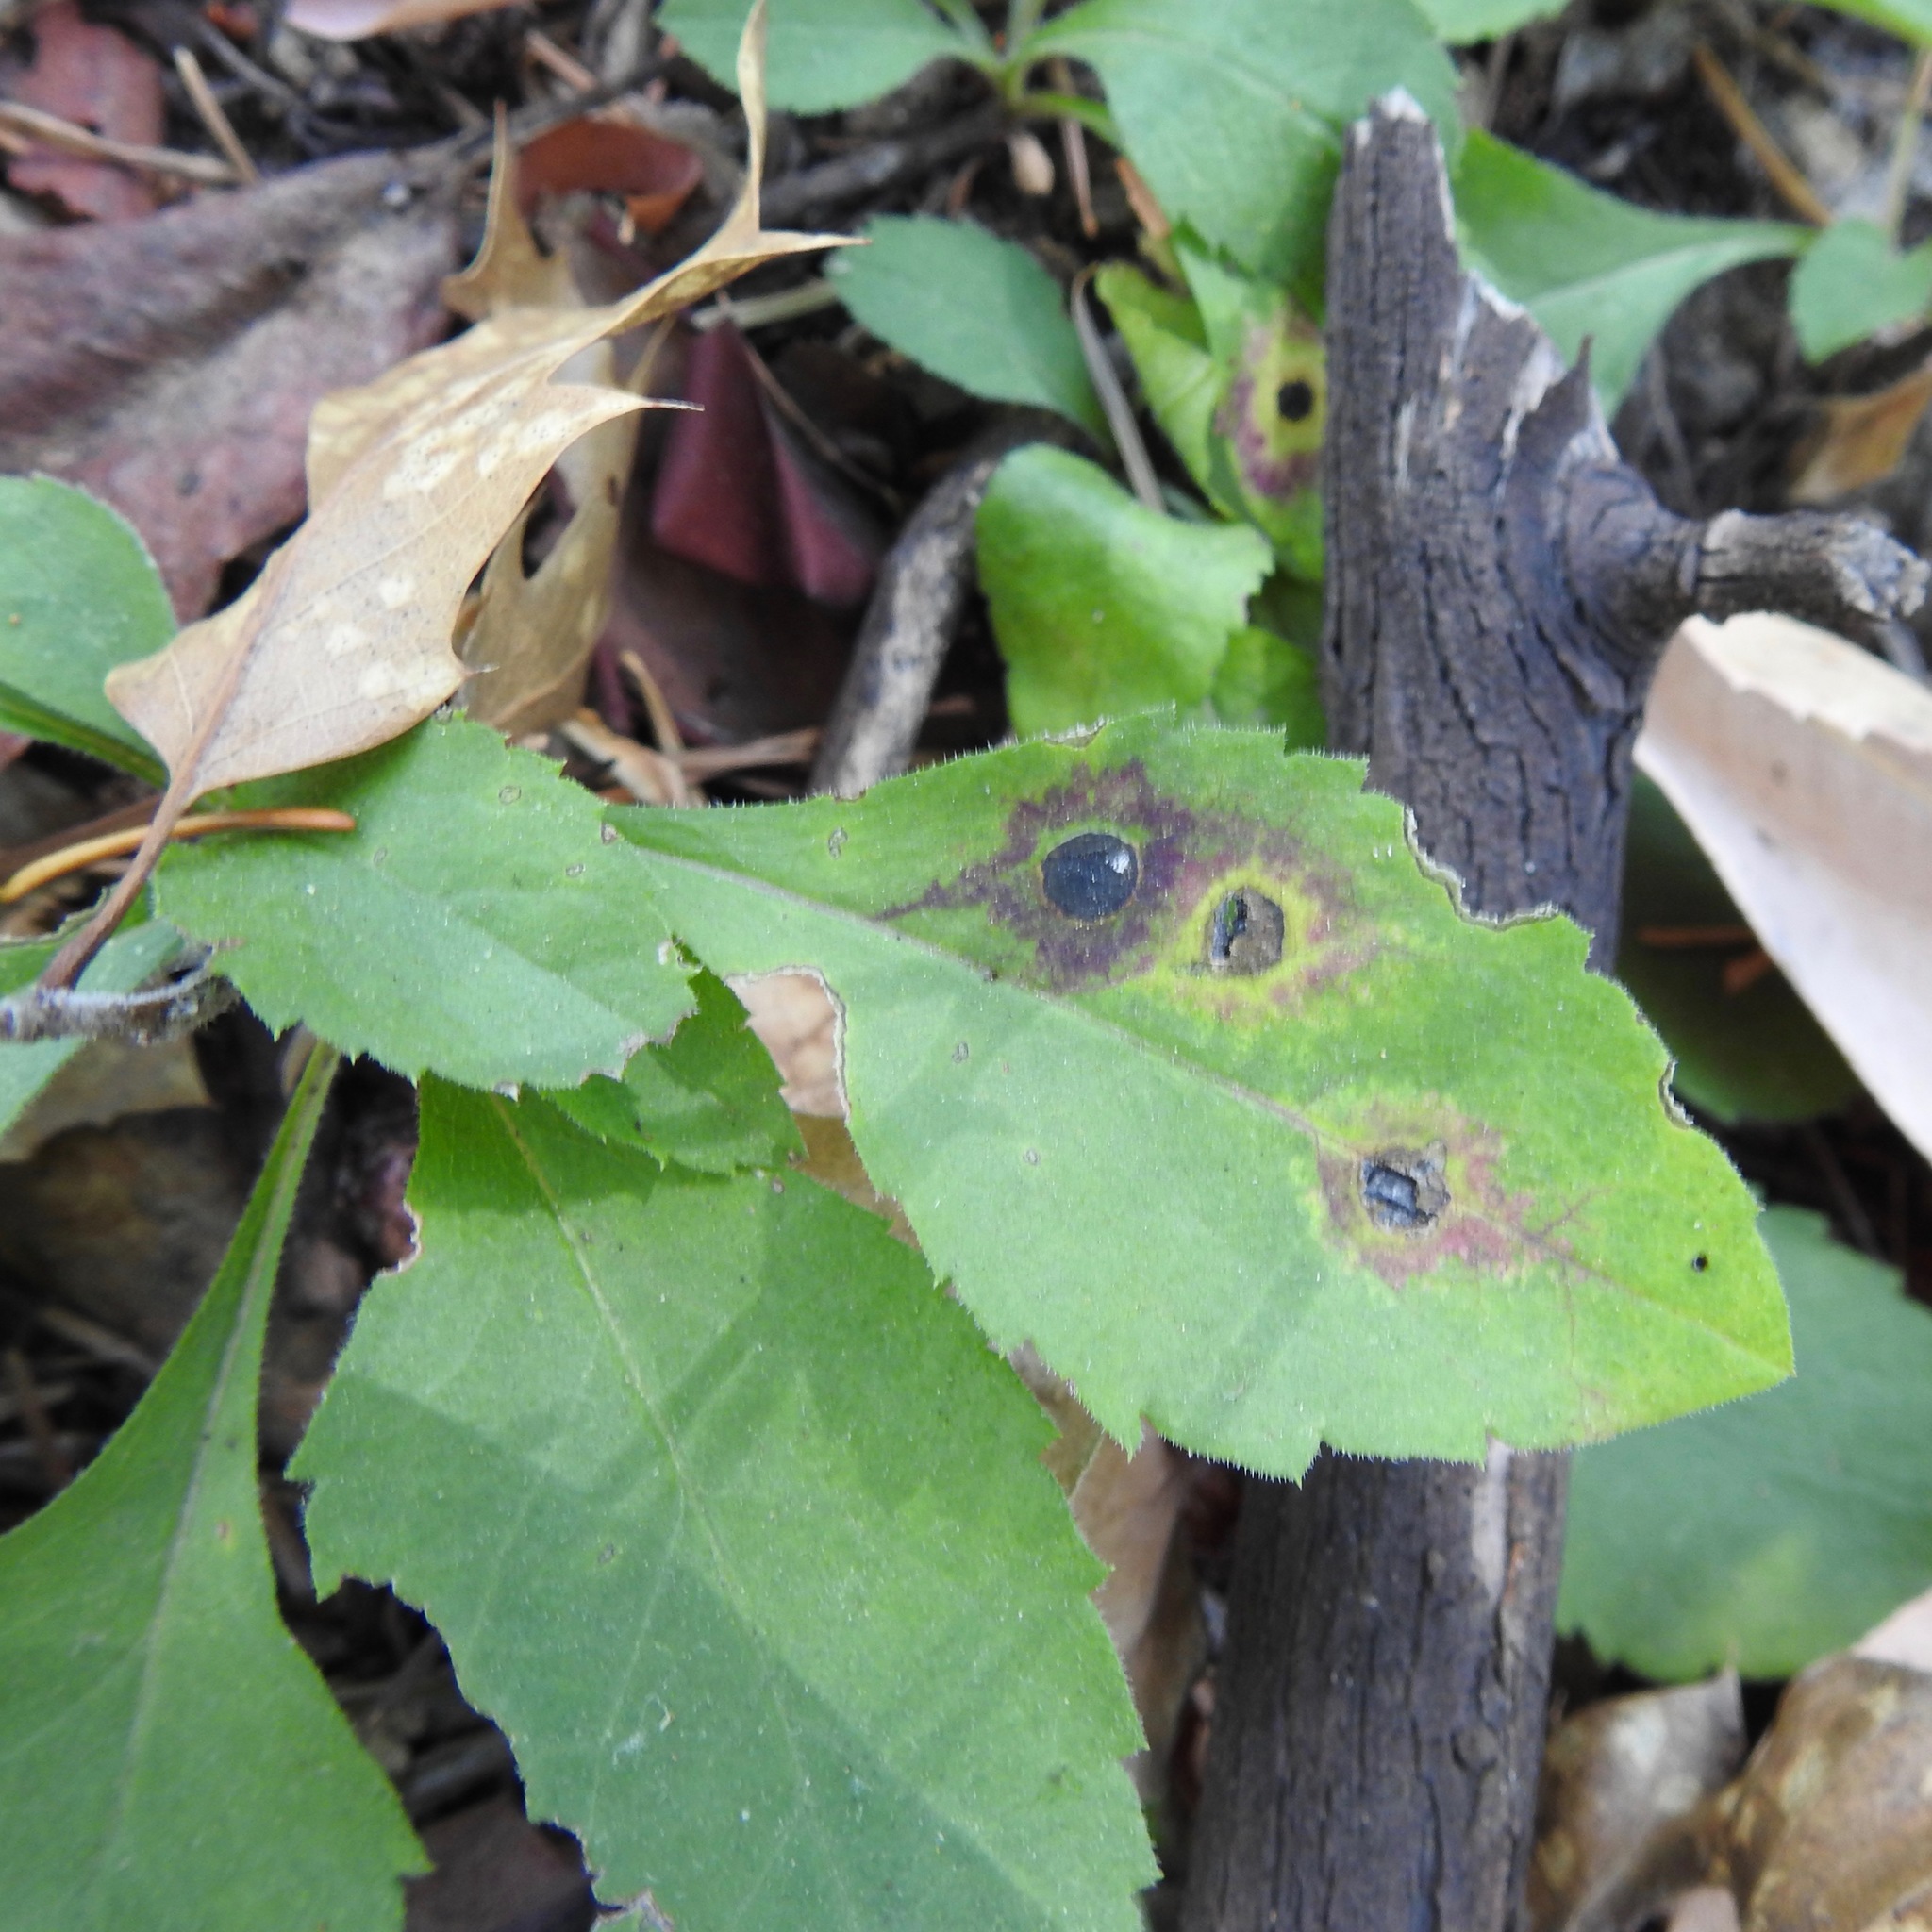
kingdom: Plantae
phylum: Tracheophyta
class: Magnoliopsida
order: Asterales
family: Asteraceae
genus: Eurybia
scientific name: Eurybia radulina
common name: Rough-leaved aster
